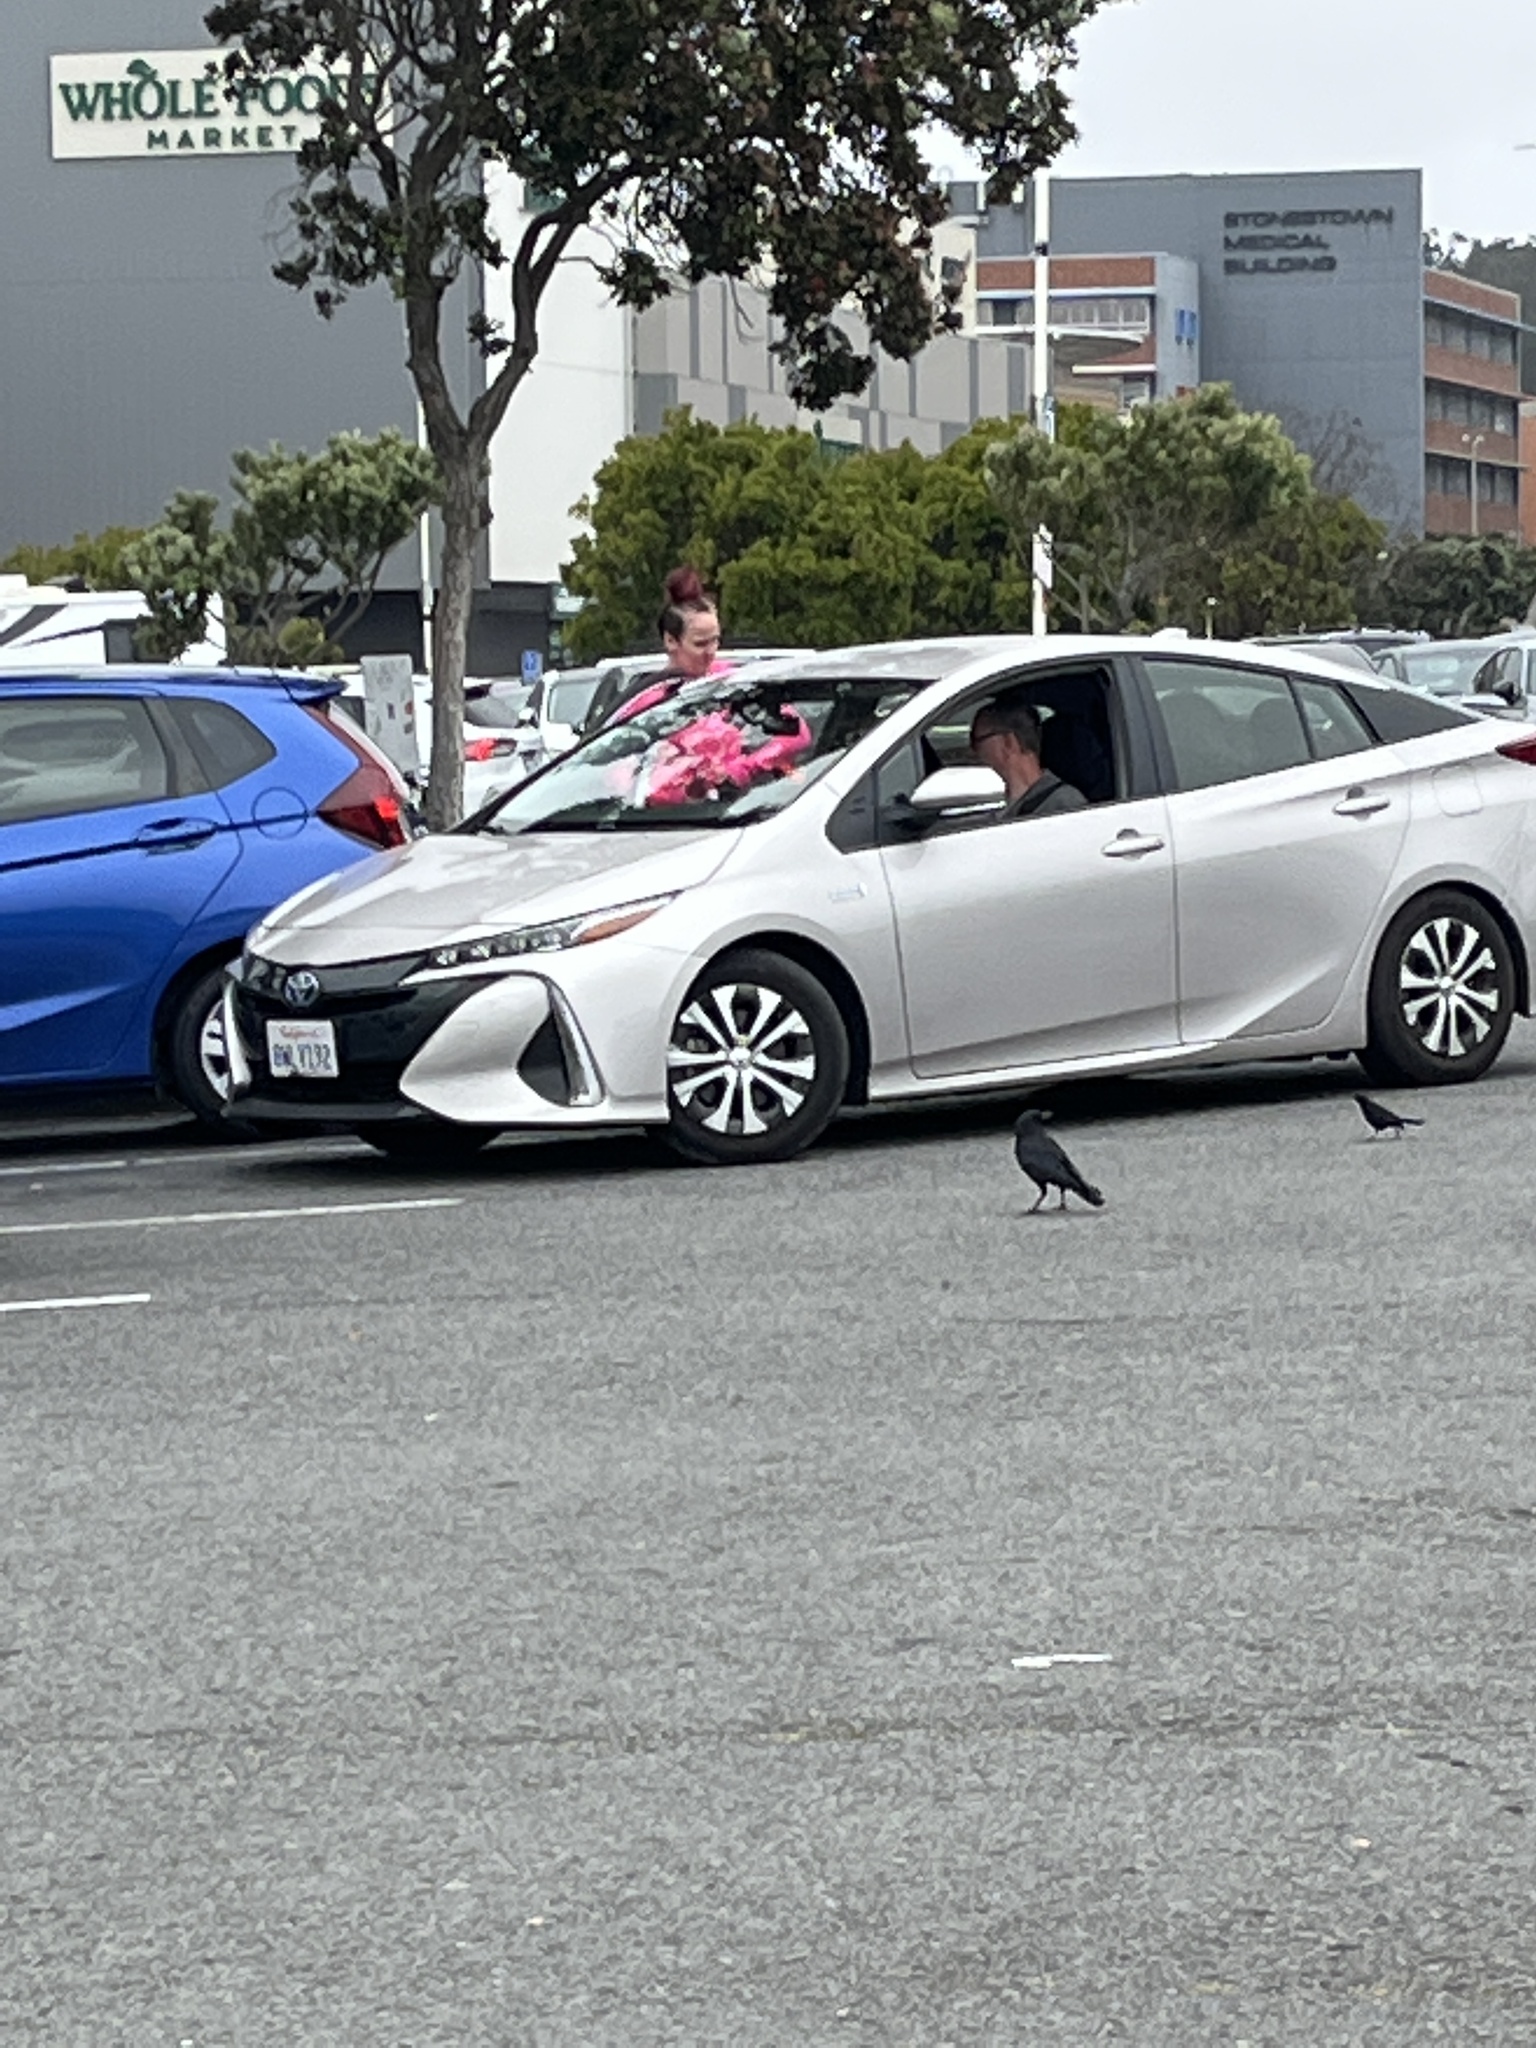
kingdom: Animalia
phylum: Chordata
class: Aves
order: Passeriformes
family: Corvidae
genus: Corvus
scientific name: Corvus brachyrhynchos
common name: American crow
